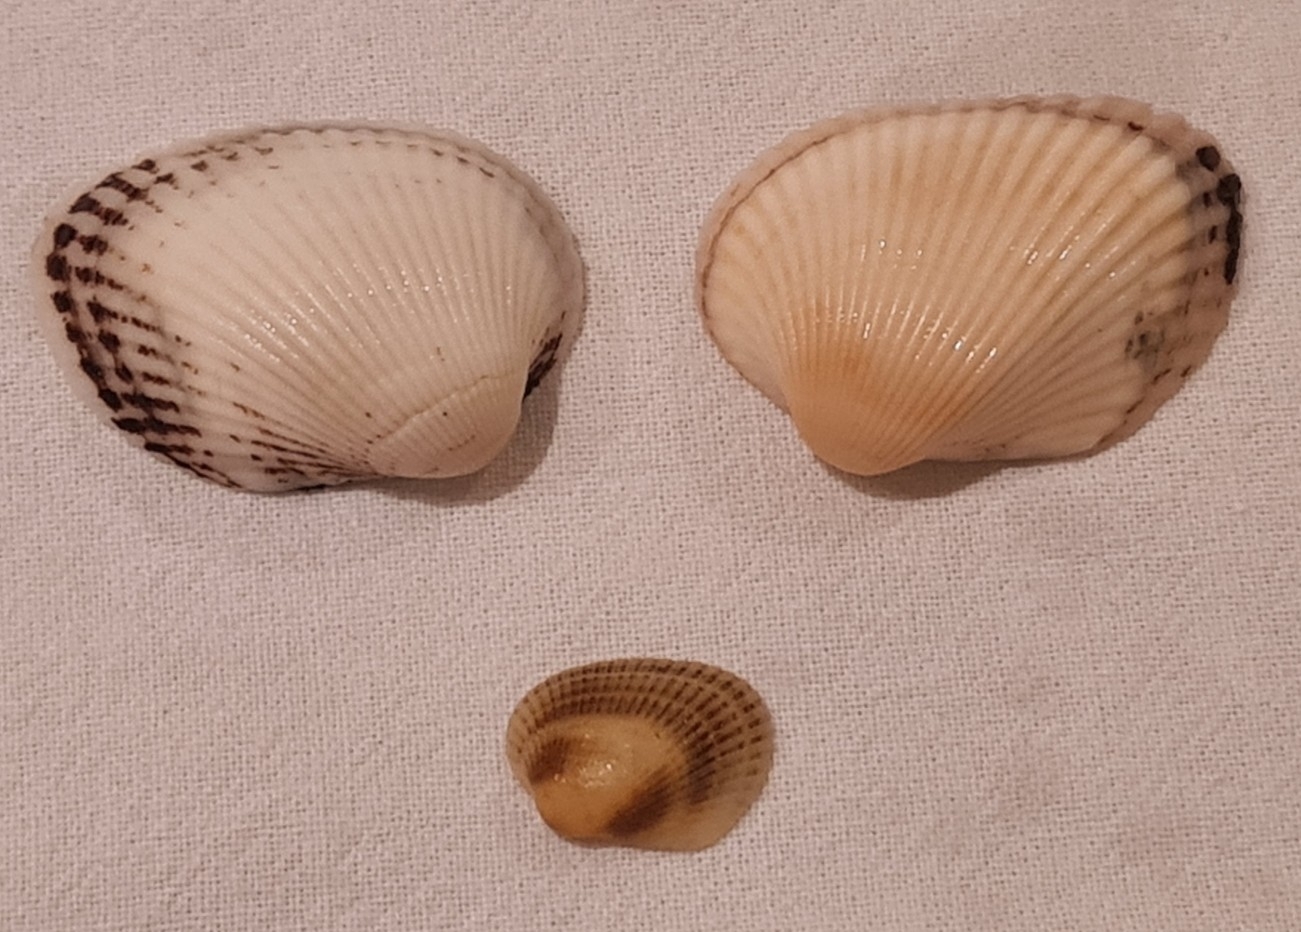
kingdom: Animalia
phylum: Mollusca
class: Bivalvia
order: Arcida
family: Arcidae
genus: Lunarca
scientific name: Lunarca ovalis
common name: Blood ark
